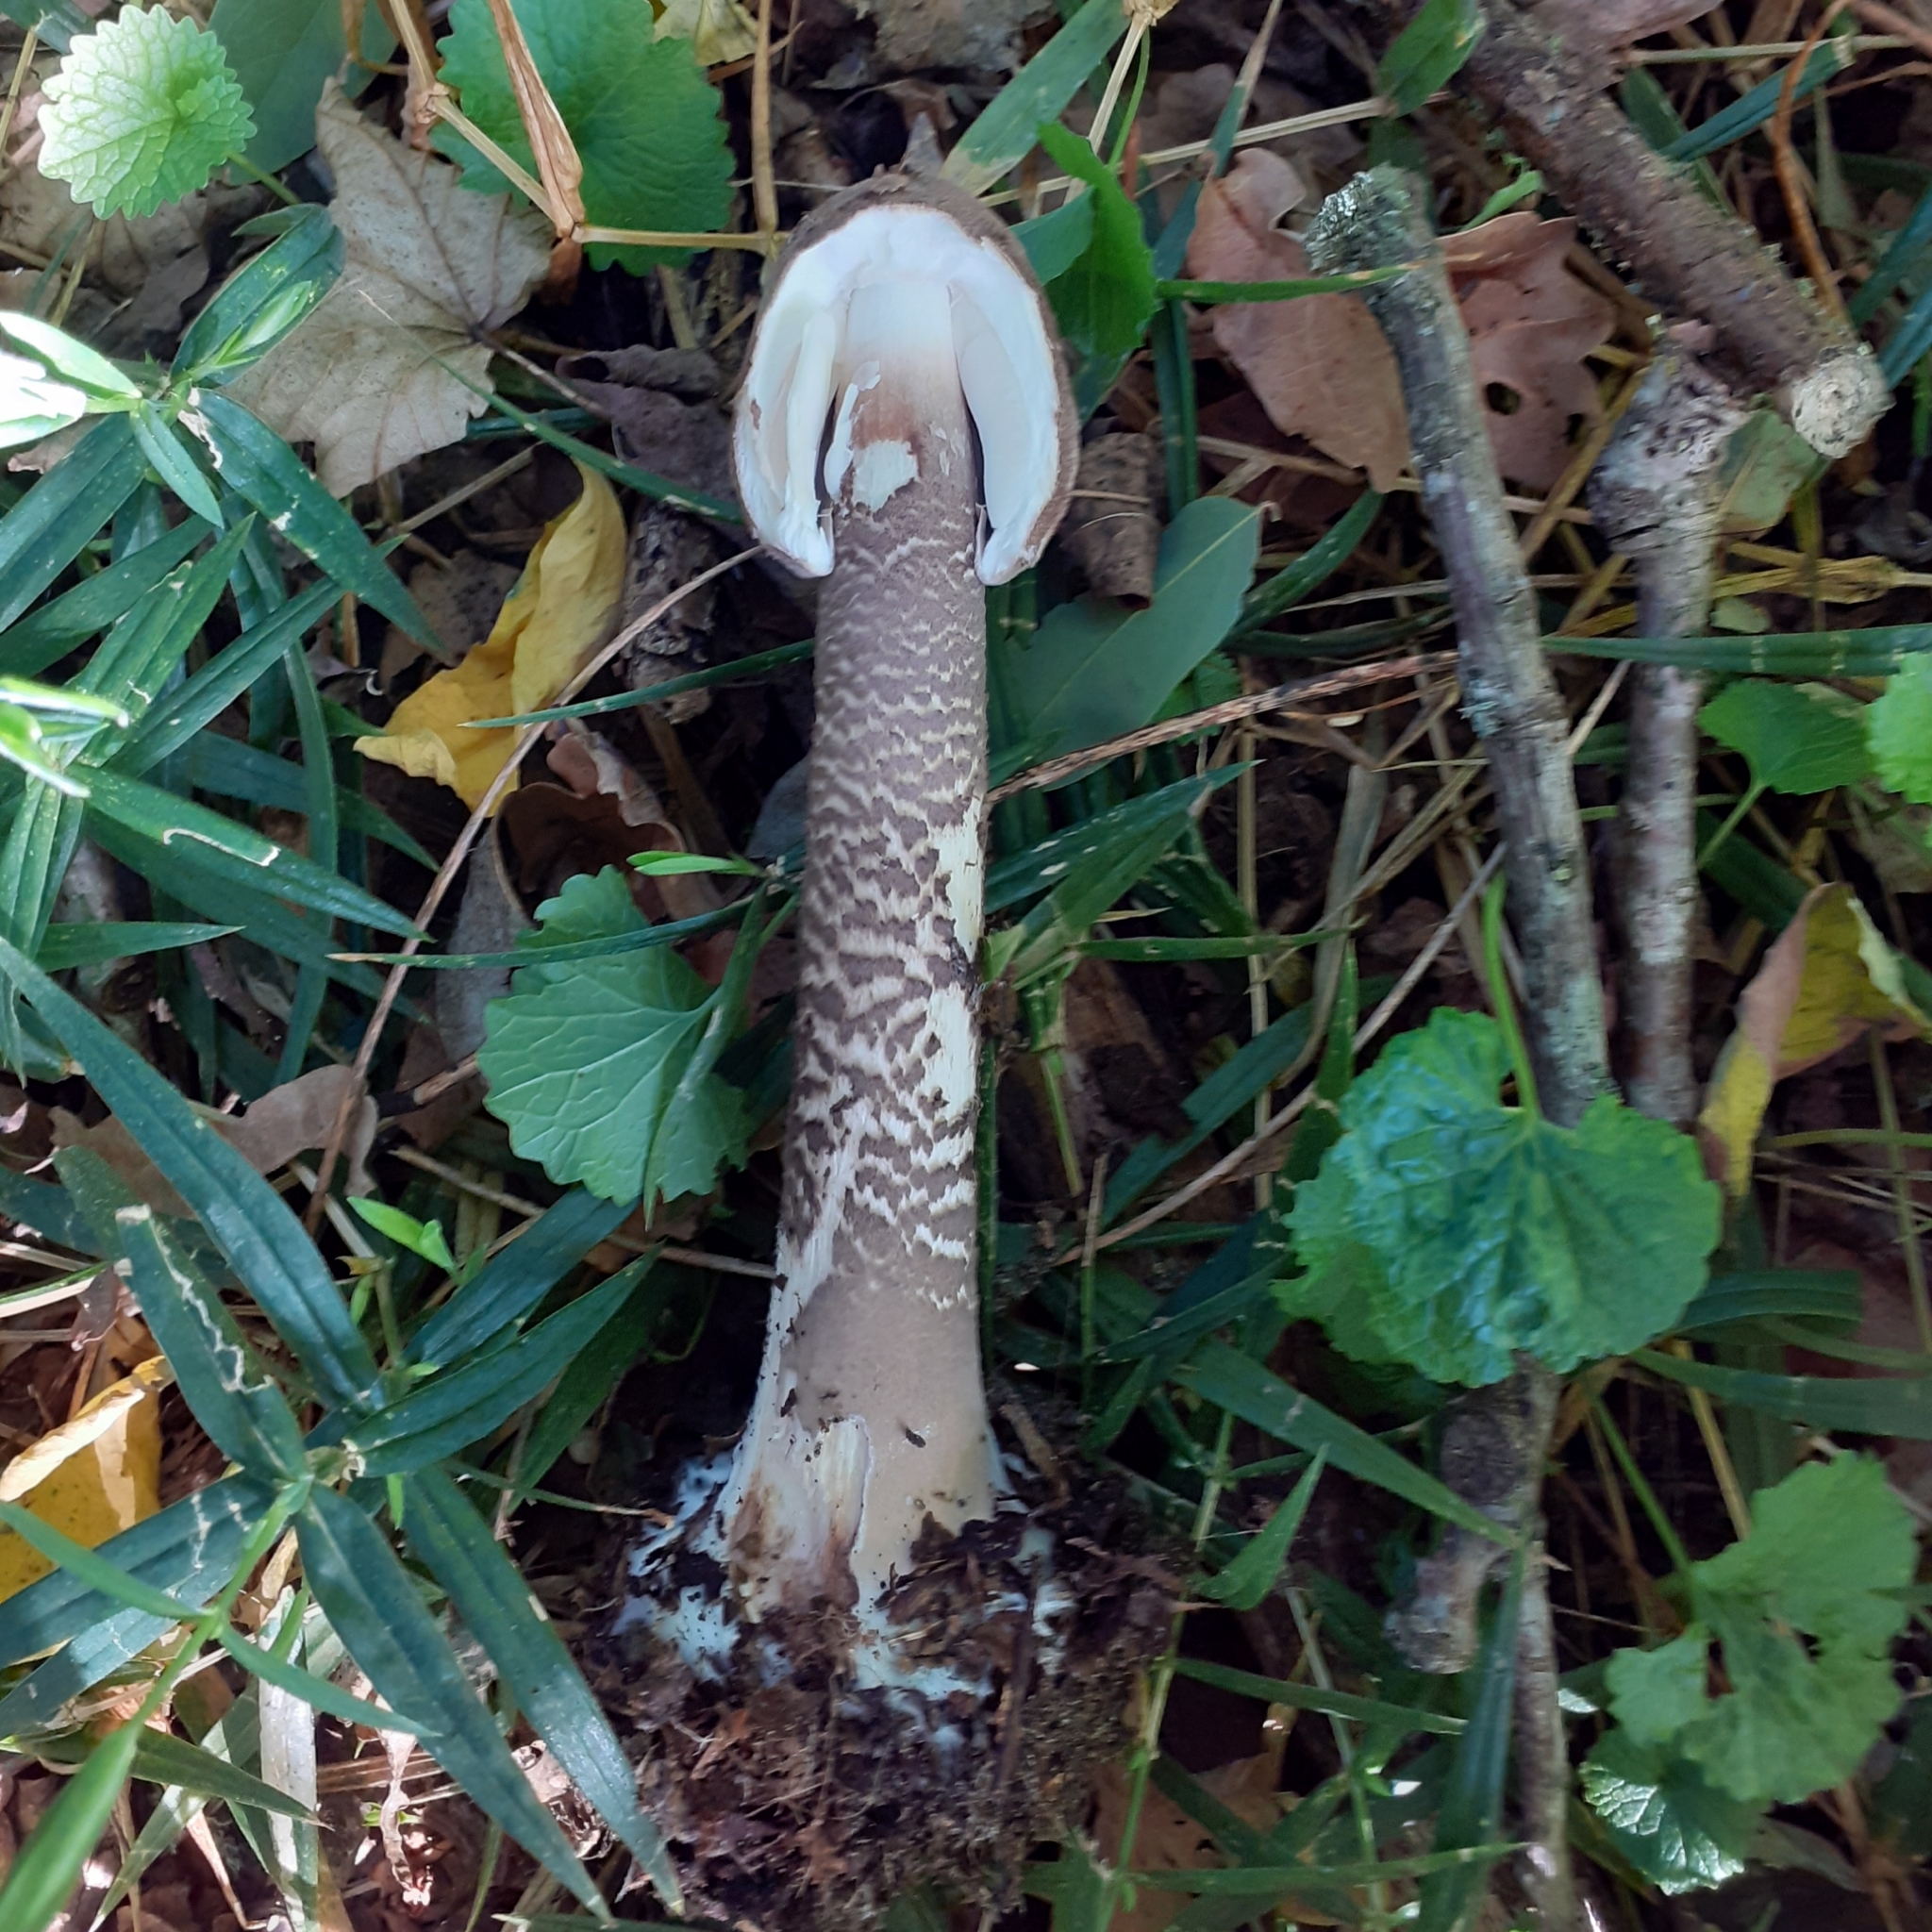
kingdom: Fungi
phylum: Basidiomycota
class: Agaricomycetes
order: Agaricales
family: Agaricaceae
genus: Macrolepiota
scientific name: Macrolepiota procera
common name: Parasol
